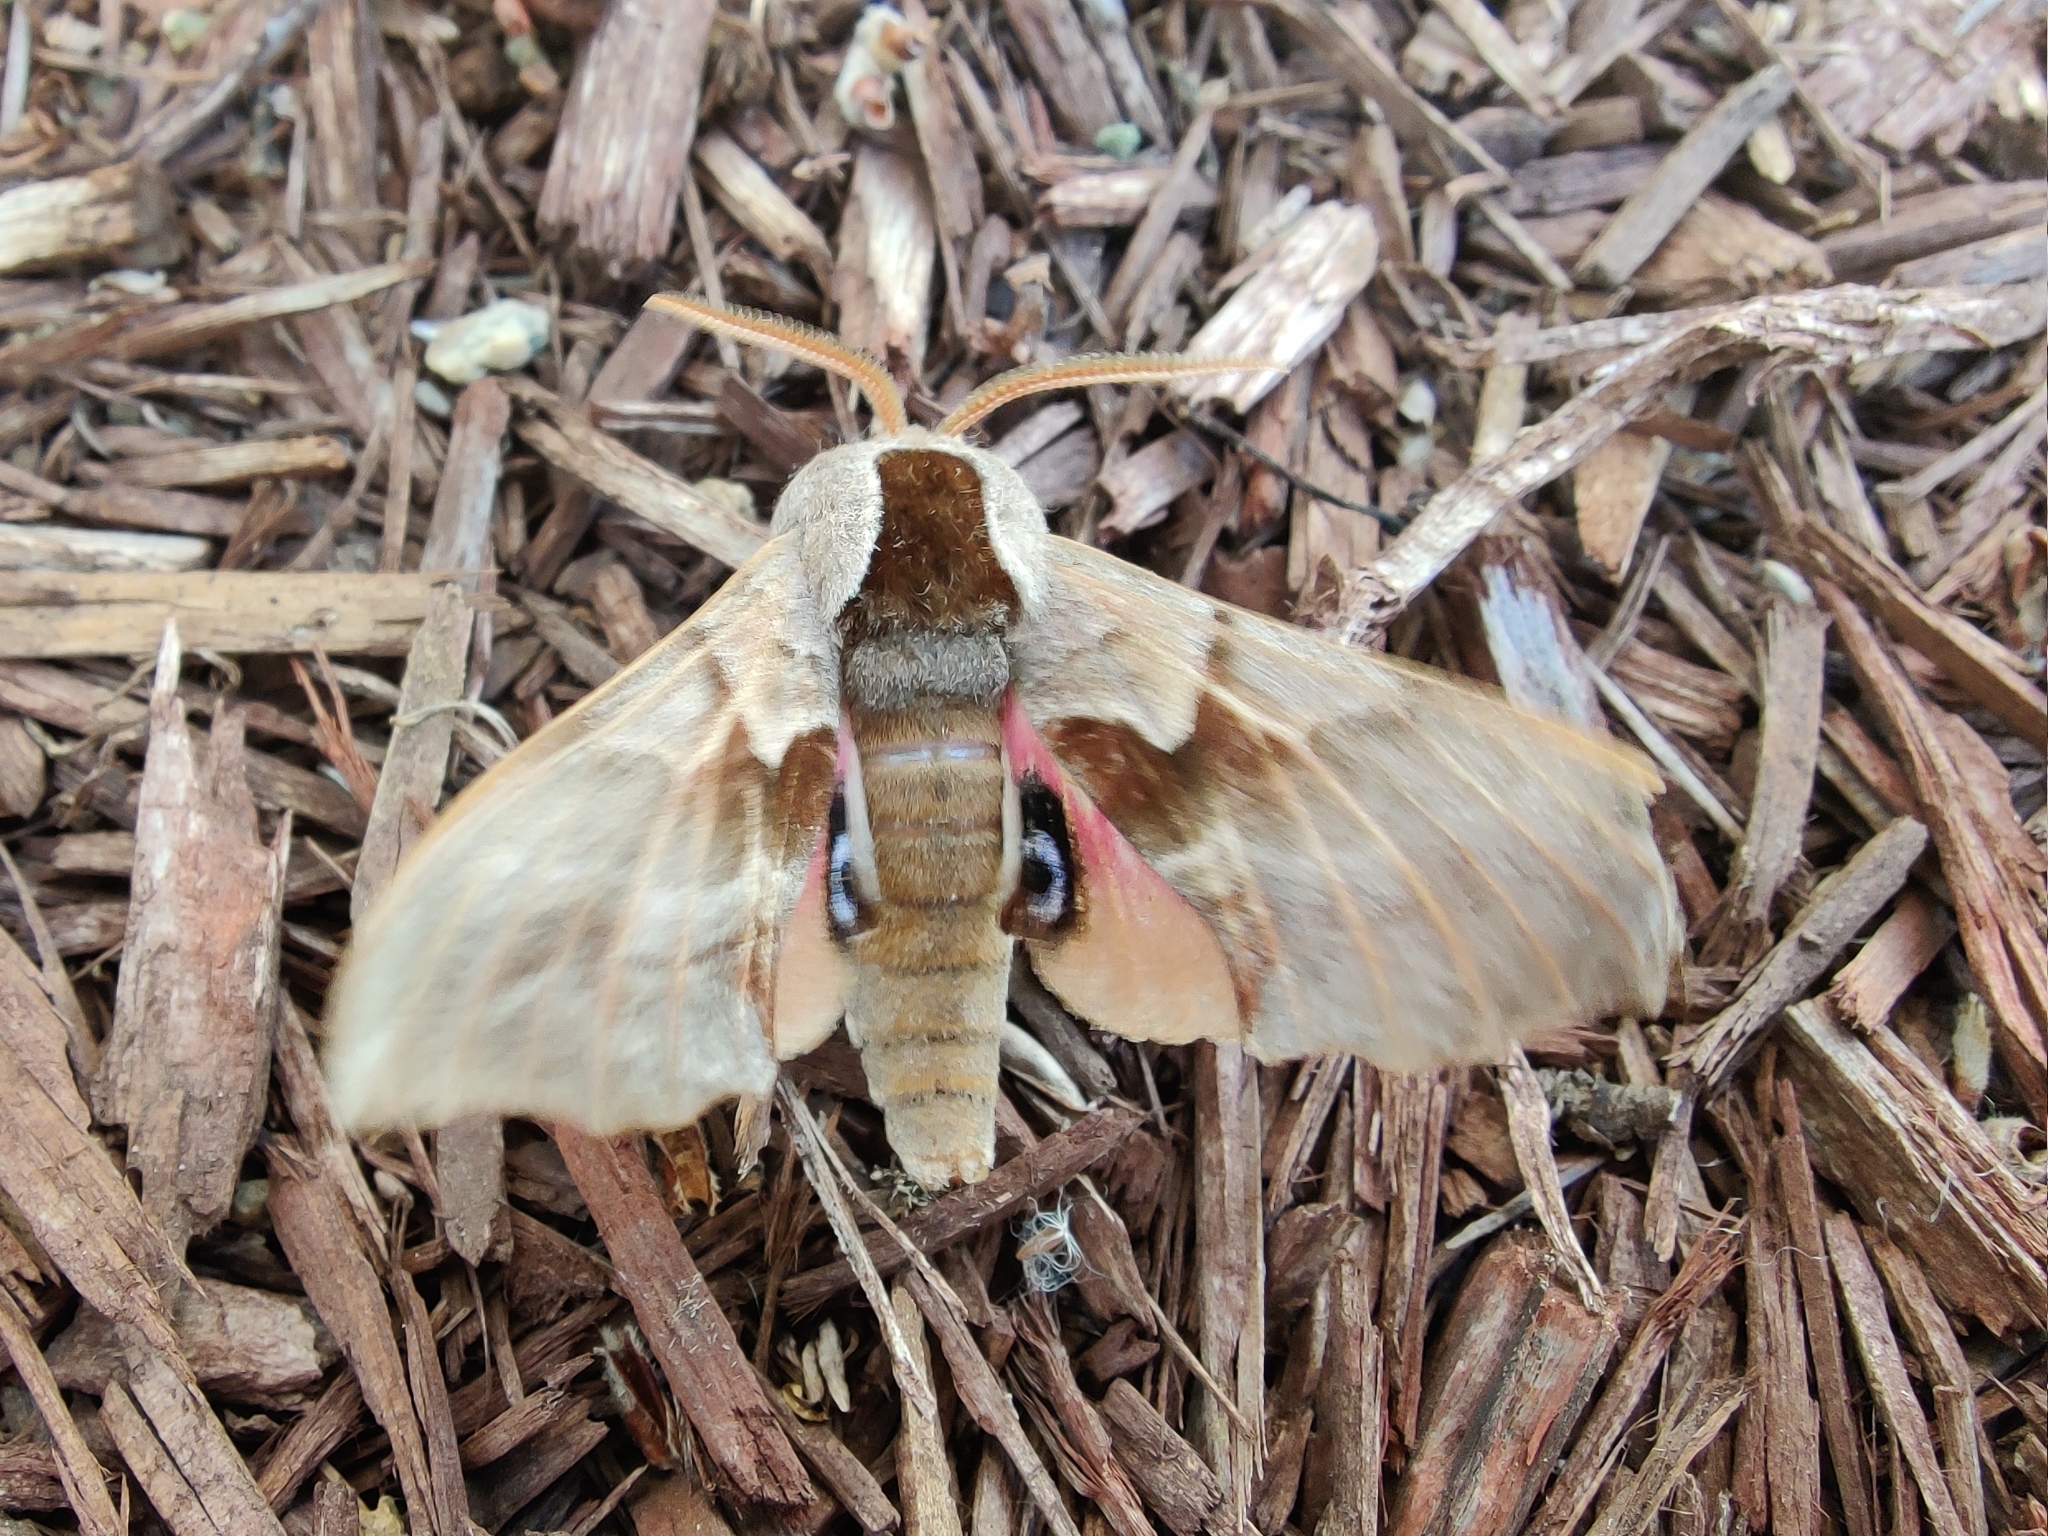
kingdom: Animalia
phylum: Arthropoda
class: Insecta
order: Lepidoptera
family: Sphingidae
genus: Smerinthus
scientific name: Smerinthus cerisyi
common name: Cerisy's sphinx moth
